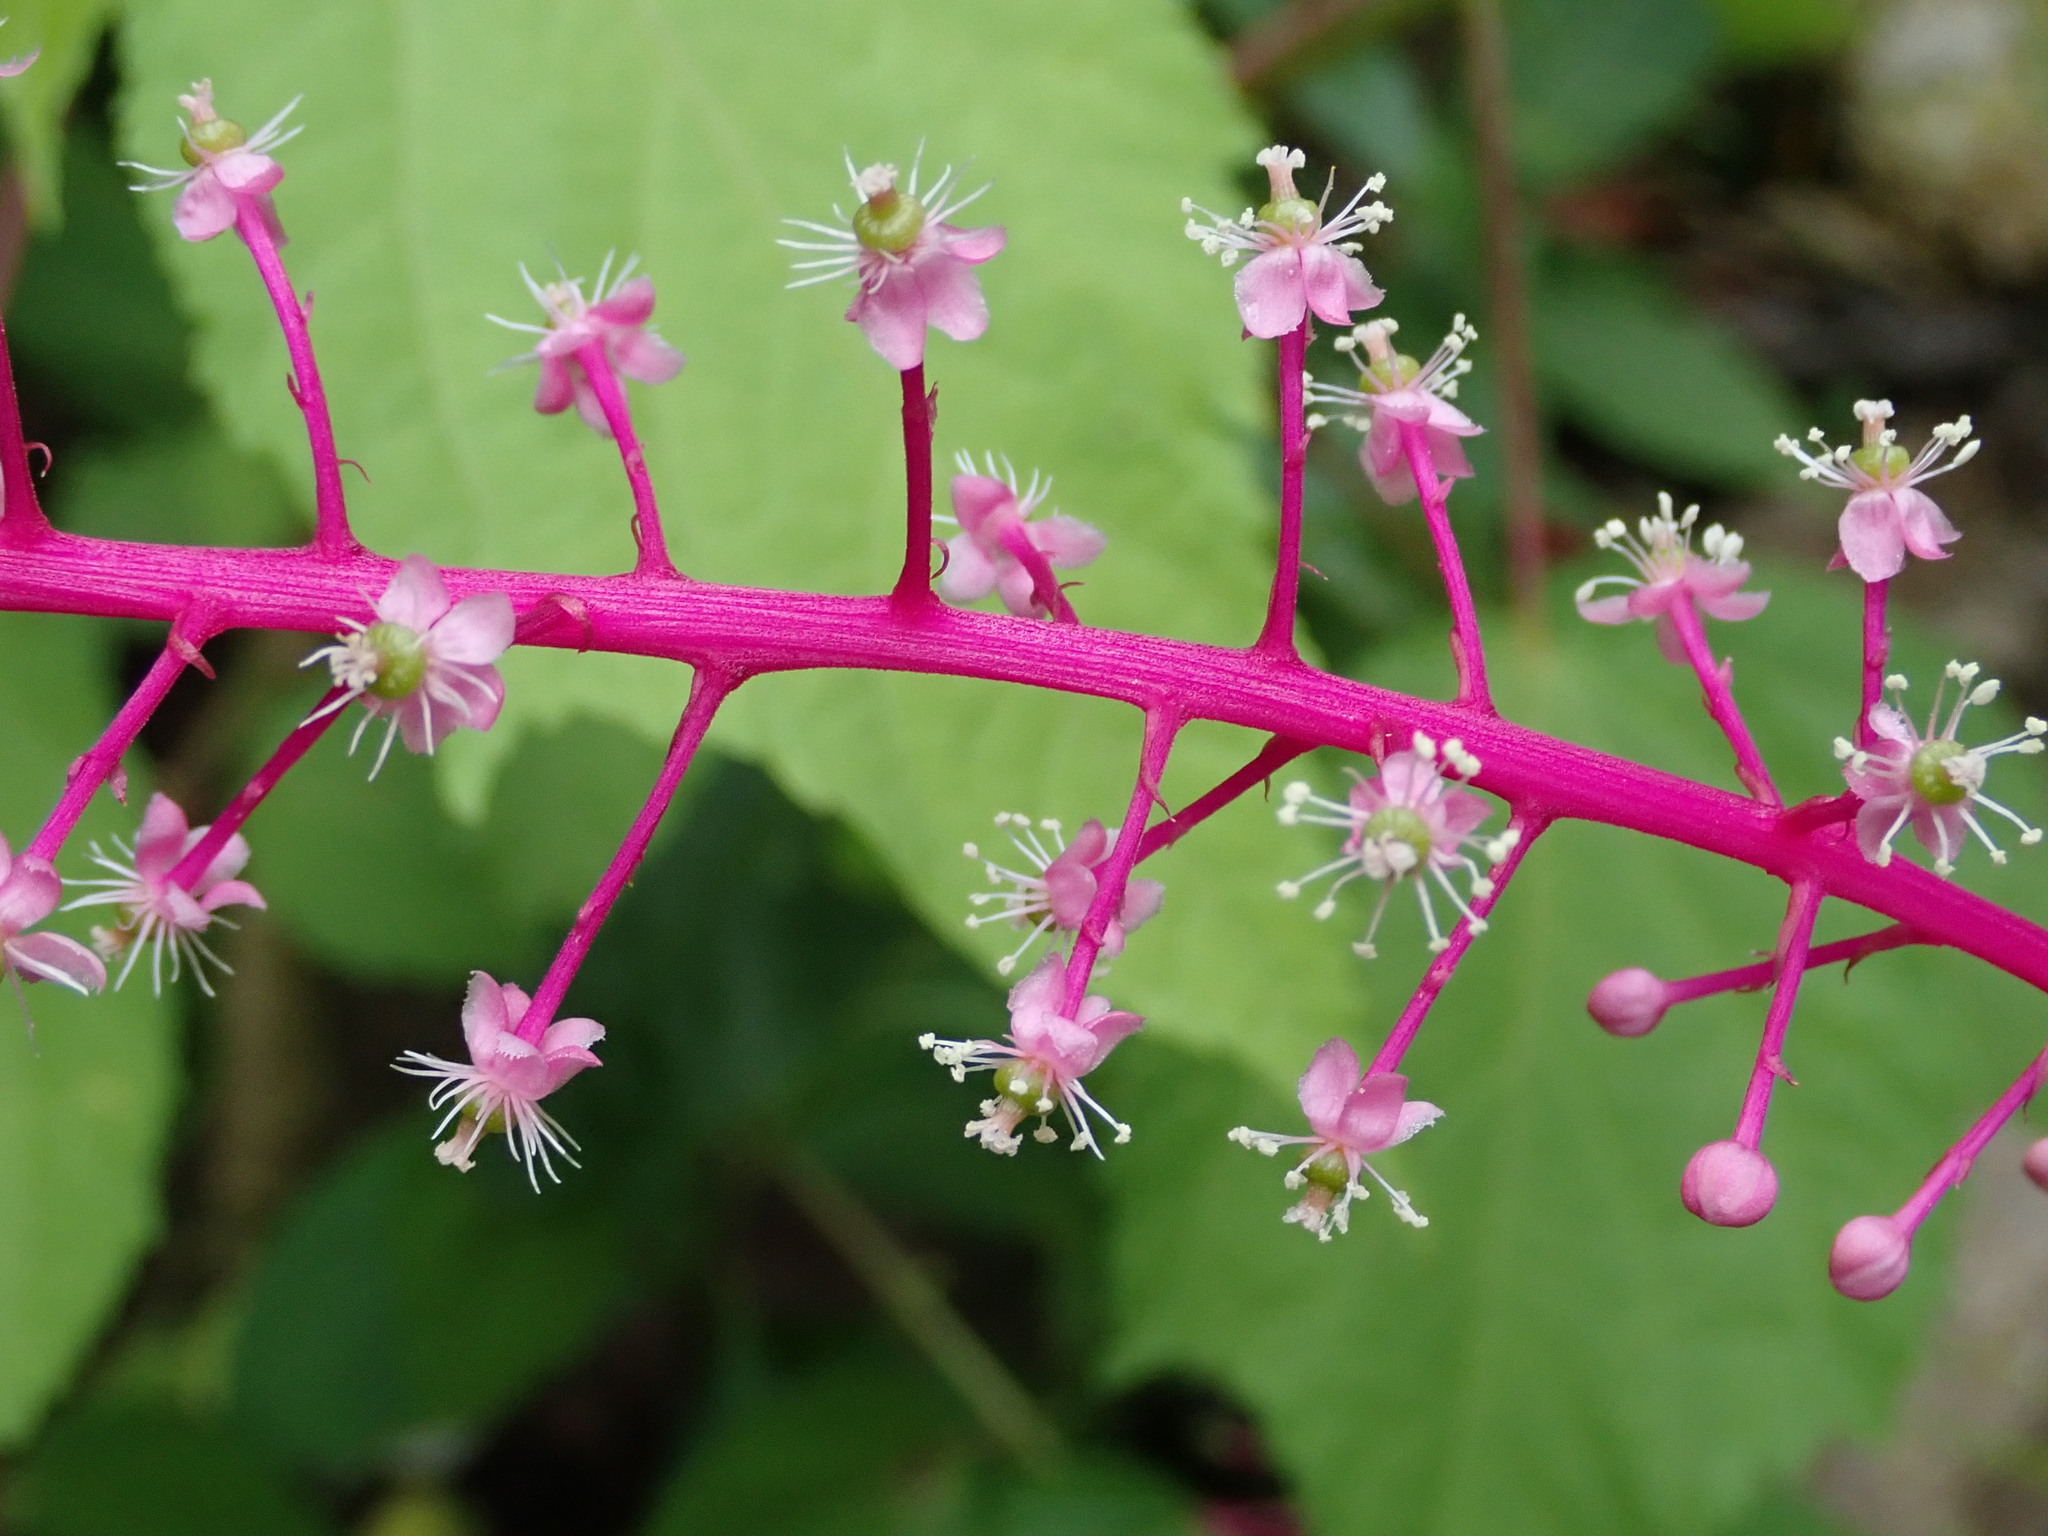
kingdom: Plantae
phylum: Tracheophyta
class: Magnoliopsida
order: Caryophyllales
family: Phytolaccaceae
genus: Phytolacca
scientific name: Phytolacca rivinoides
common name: Venezuelan pokeweed
